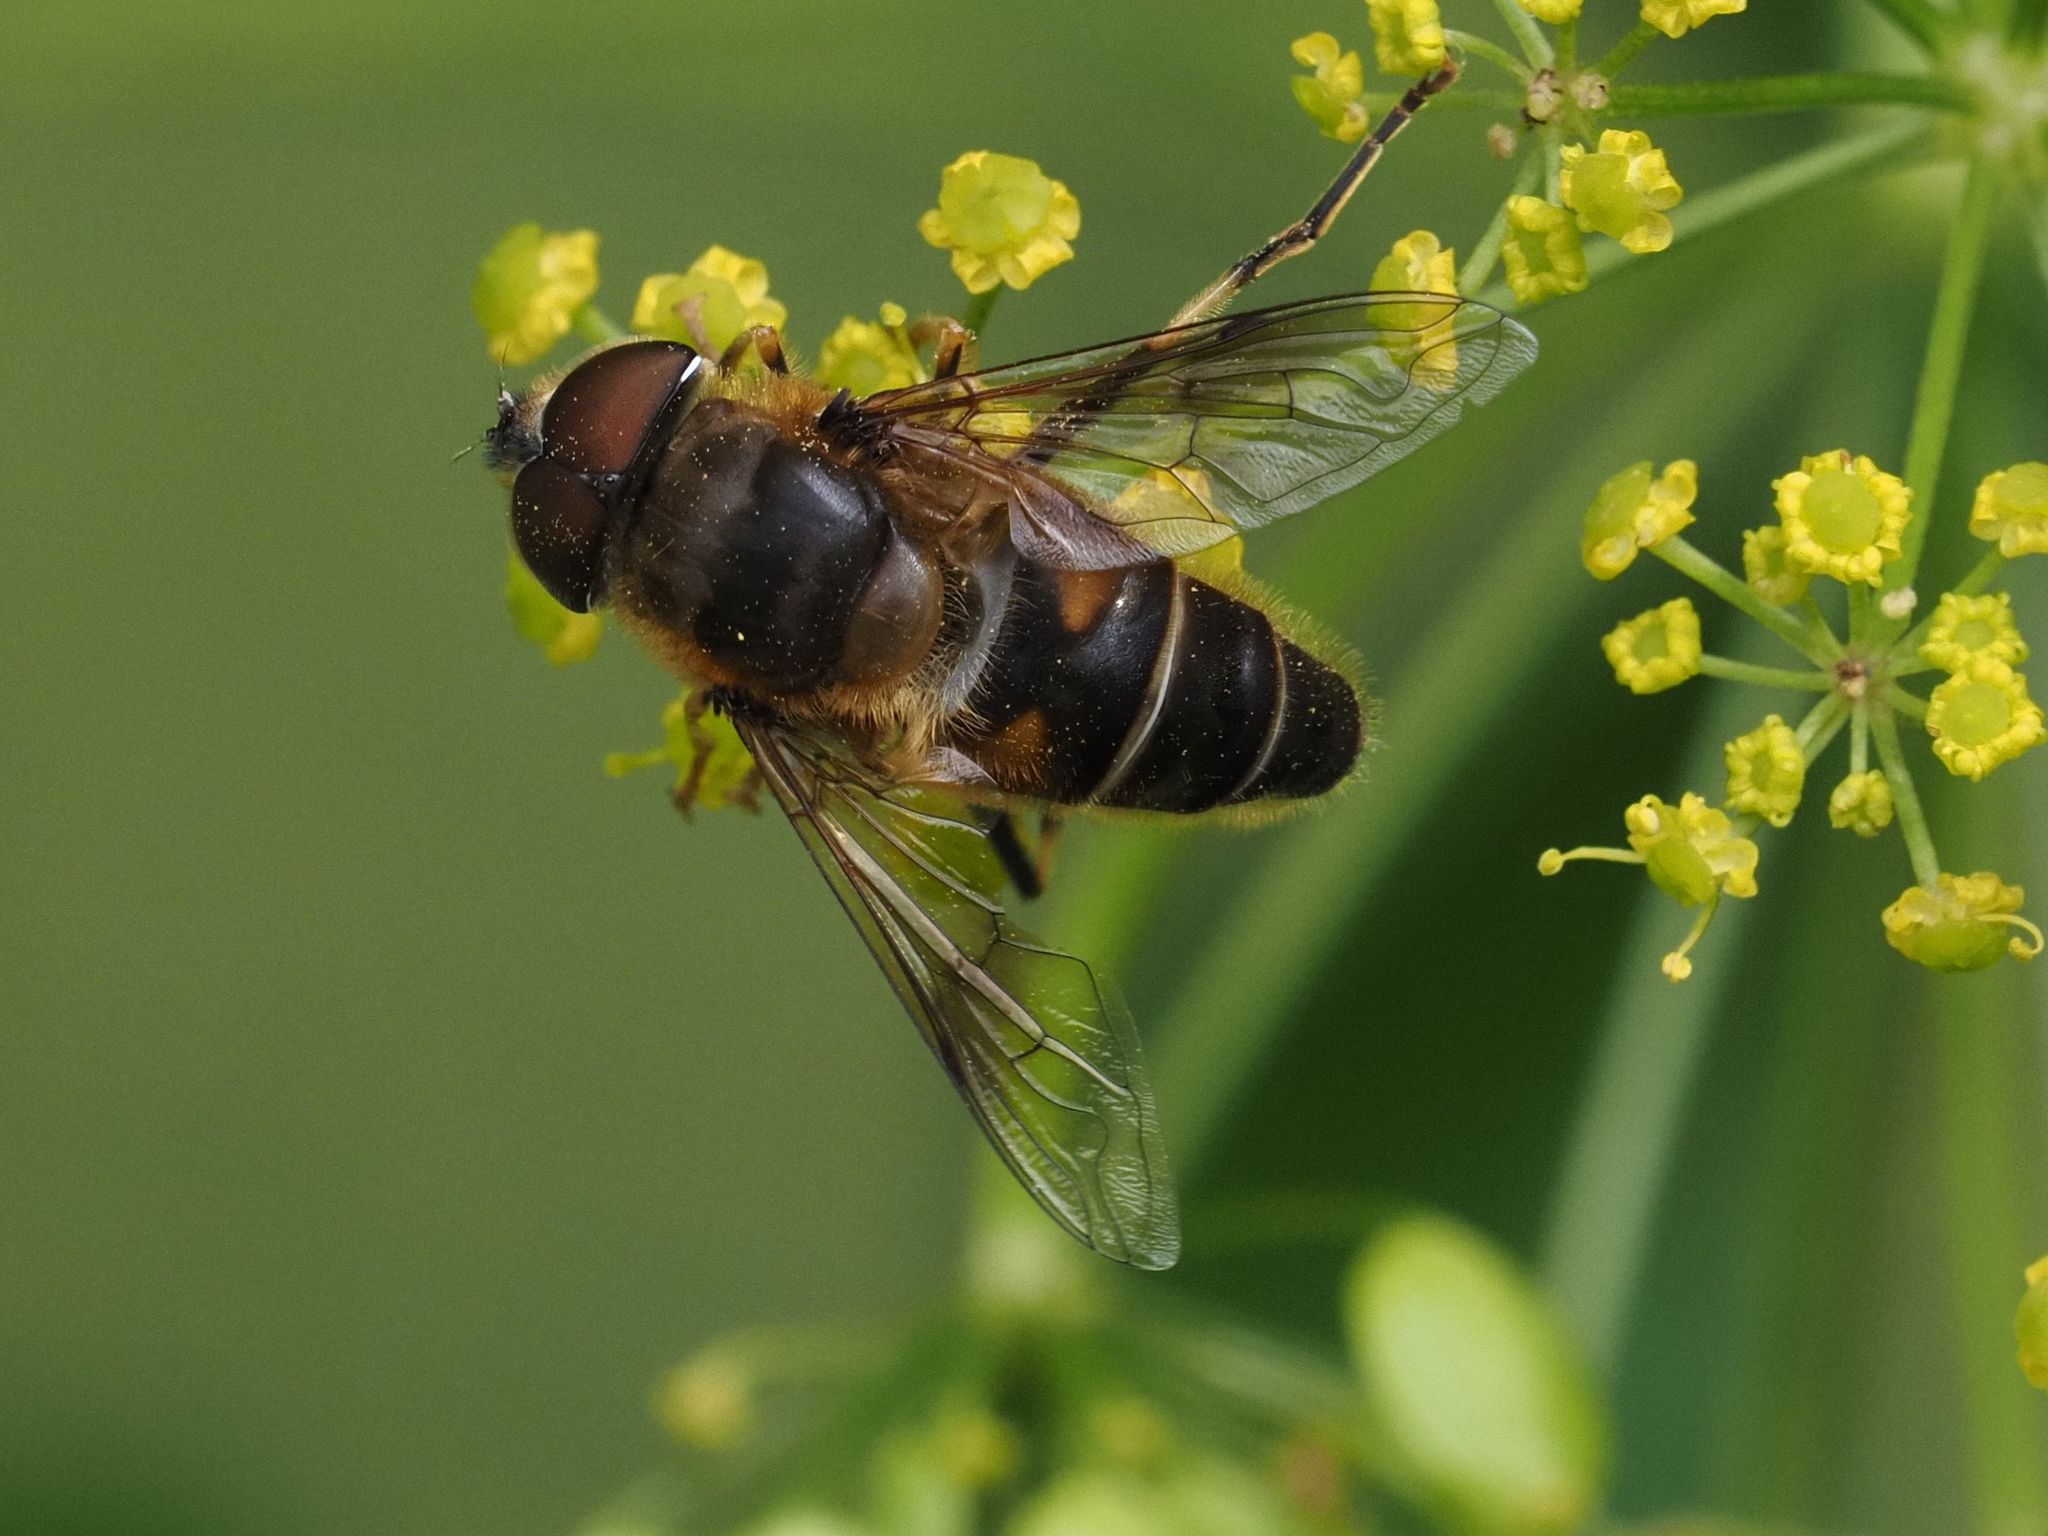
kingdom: Animalia
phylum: Arthropoda
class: Insecta
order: Diptera
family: Syrphidae
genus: Eristalis
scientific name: Eristalis pertinax
